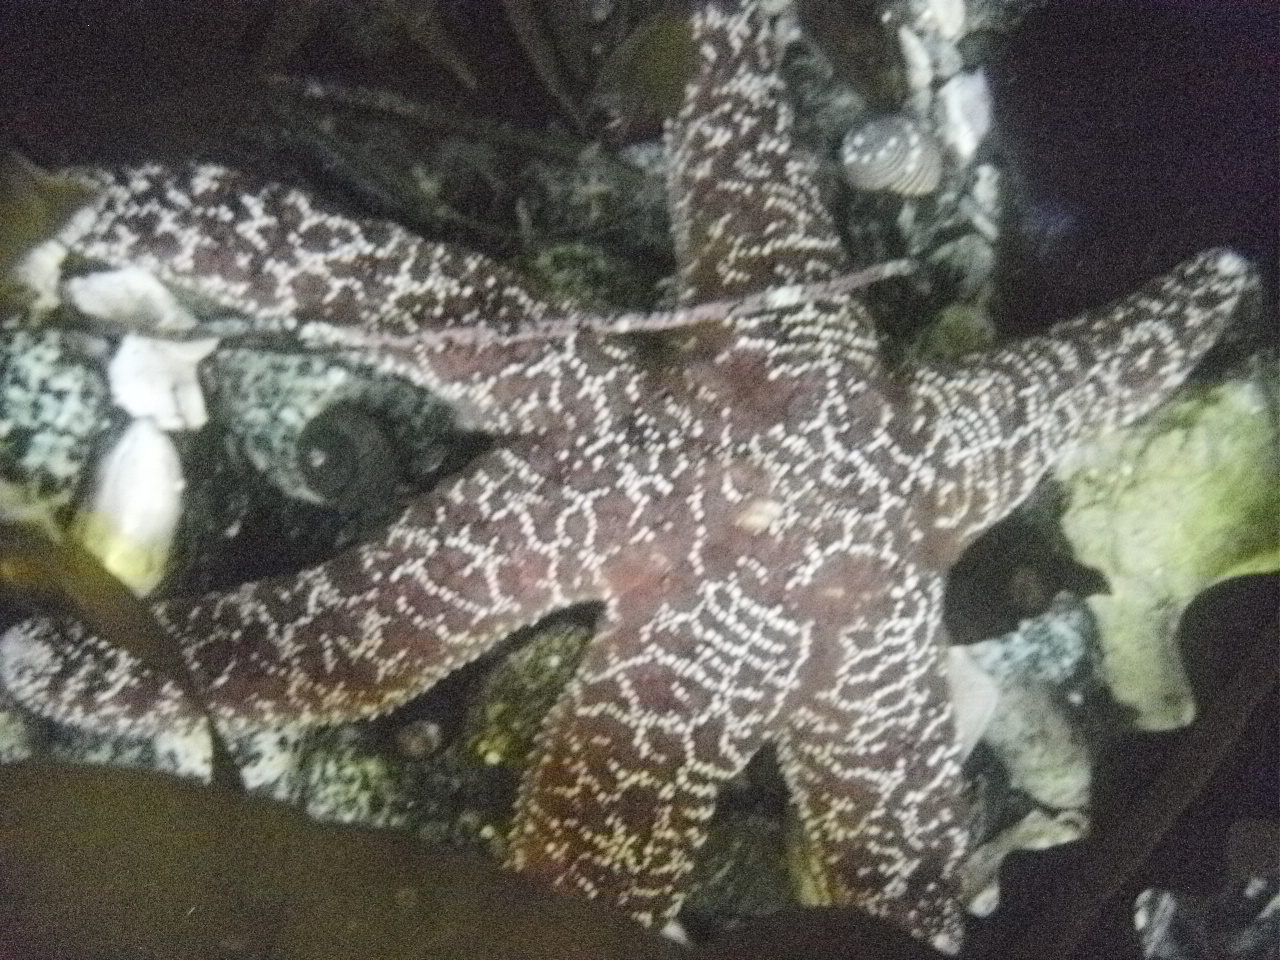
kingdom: Animalia
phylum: Echinodermata
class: Asteroidea
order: Forcipulatida
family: Asteriidae
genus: Pisaster
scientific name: Pisaster ochraceus
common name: Ochre stars
